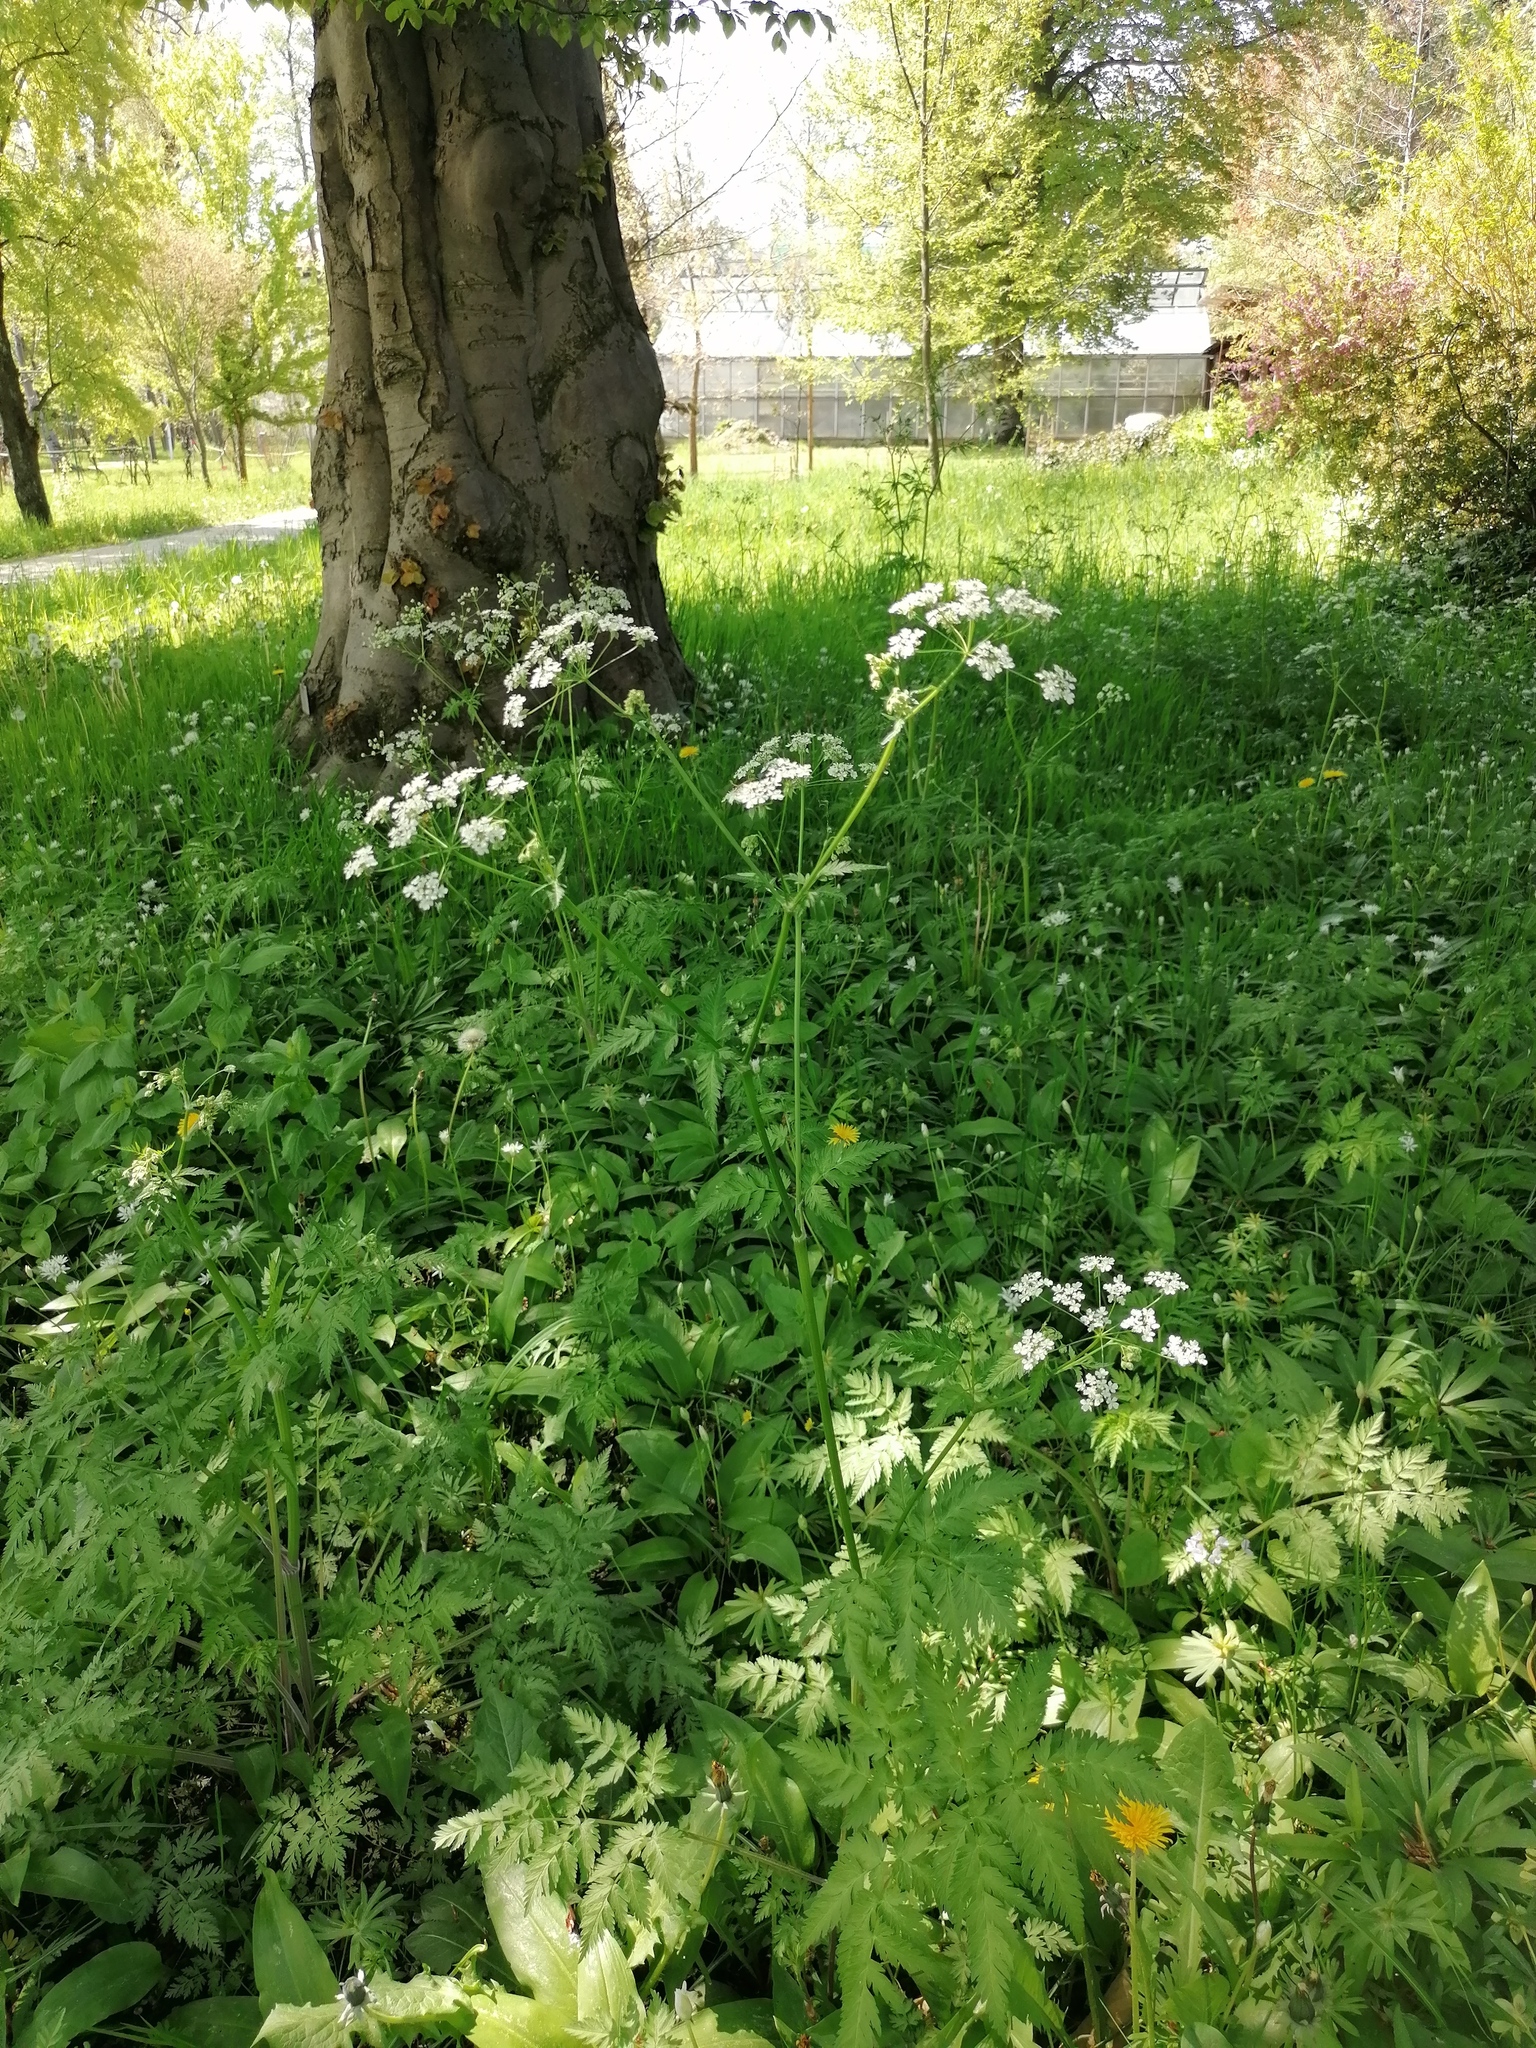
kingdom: Plantae
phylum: Tracheophyta
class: Magnoliopsida
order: Apiales
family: Apiaceae
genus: Anthriscus
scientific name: Anthriscus sylvestris
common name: Cow parsley
